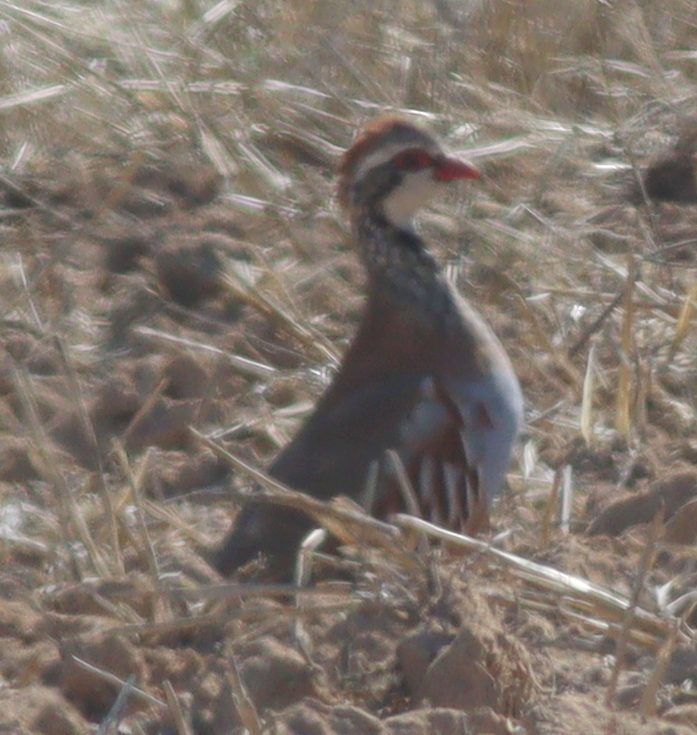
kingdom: Animalia
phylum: Chordata
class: Aves
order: Galliformes
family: Phasianidae
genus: Alectoris
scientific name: Alectoris rufa
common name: Red-legged partridge
